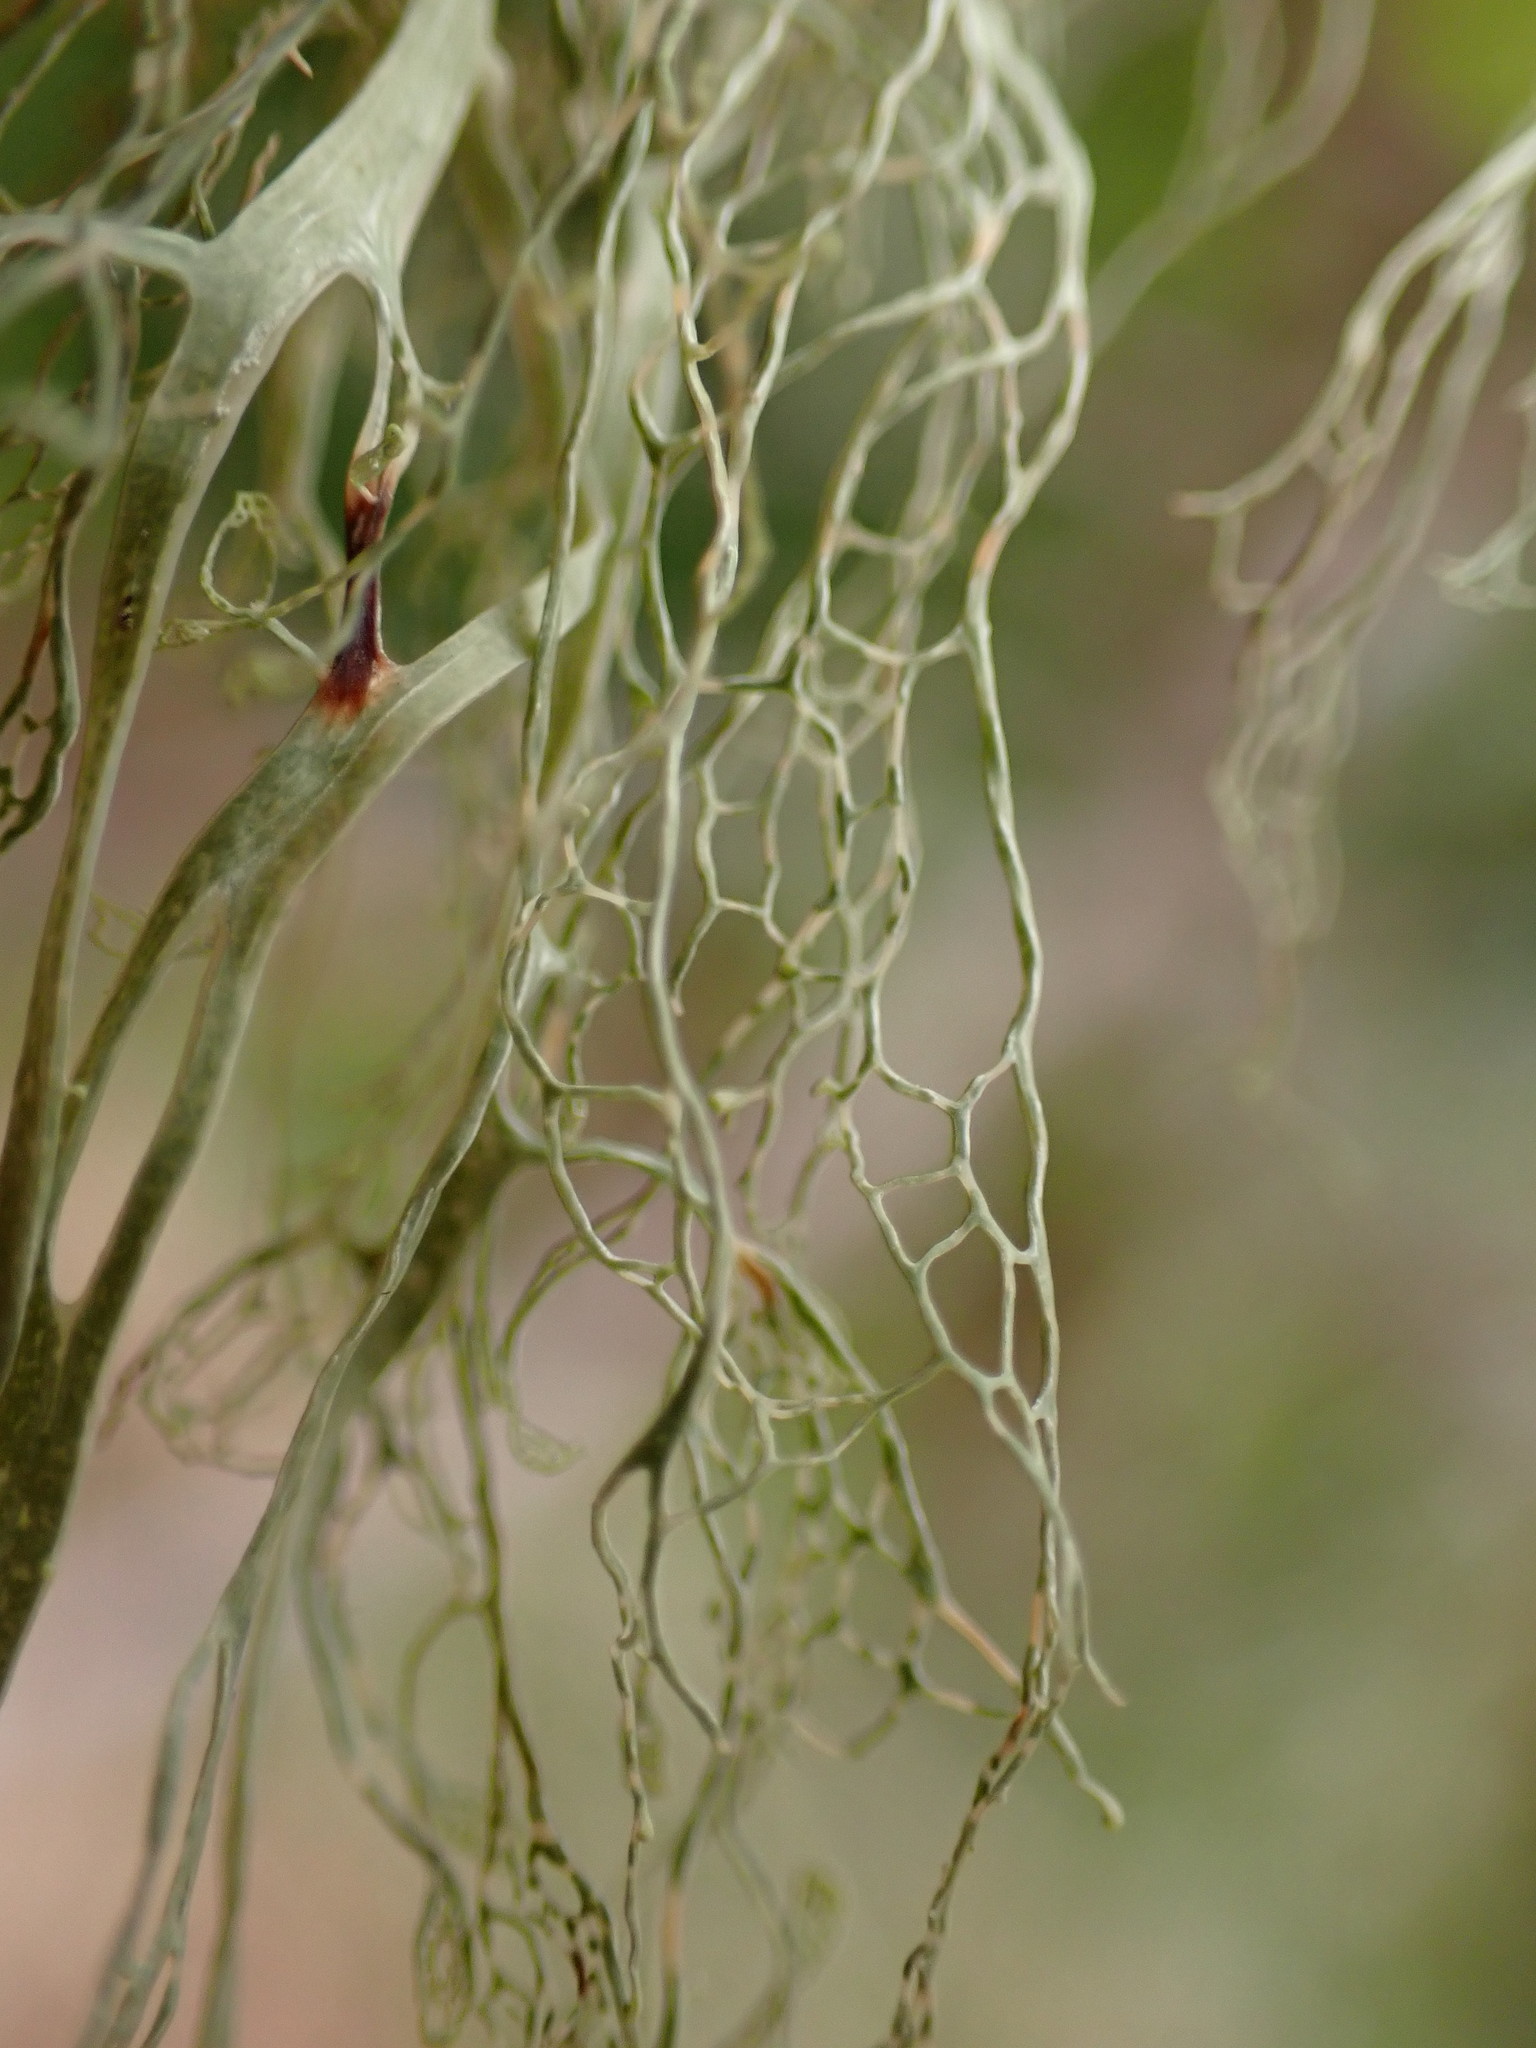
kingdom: Fungi
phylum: Ascomycota
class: Lecanoromycetes
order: Lecanorales
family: Ramalinaceae
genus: Ramalina
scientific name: Ramalina menziesii
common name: Lace lichen
